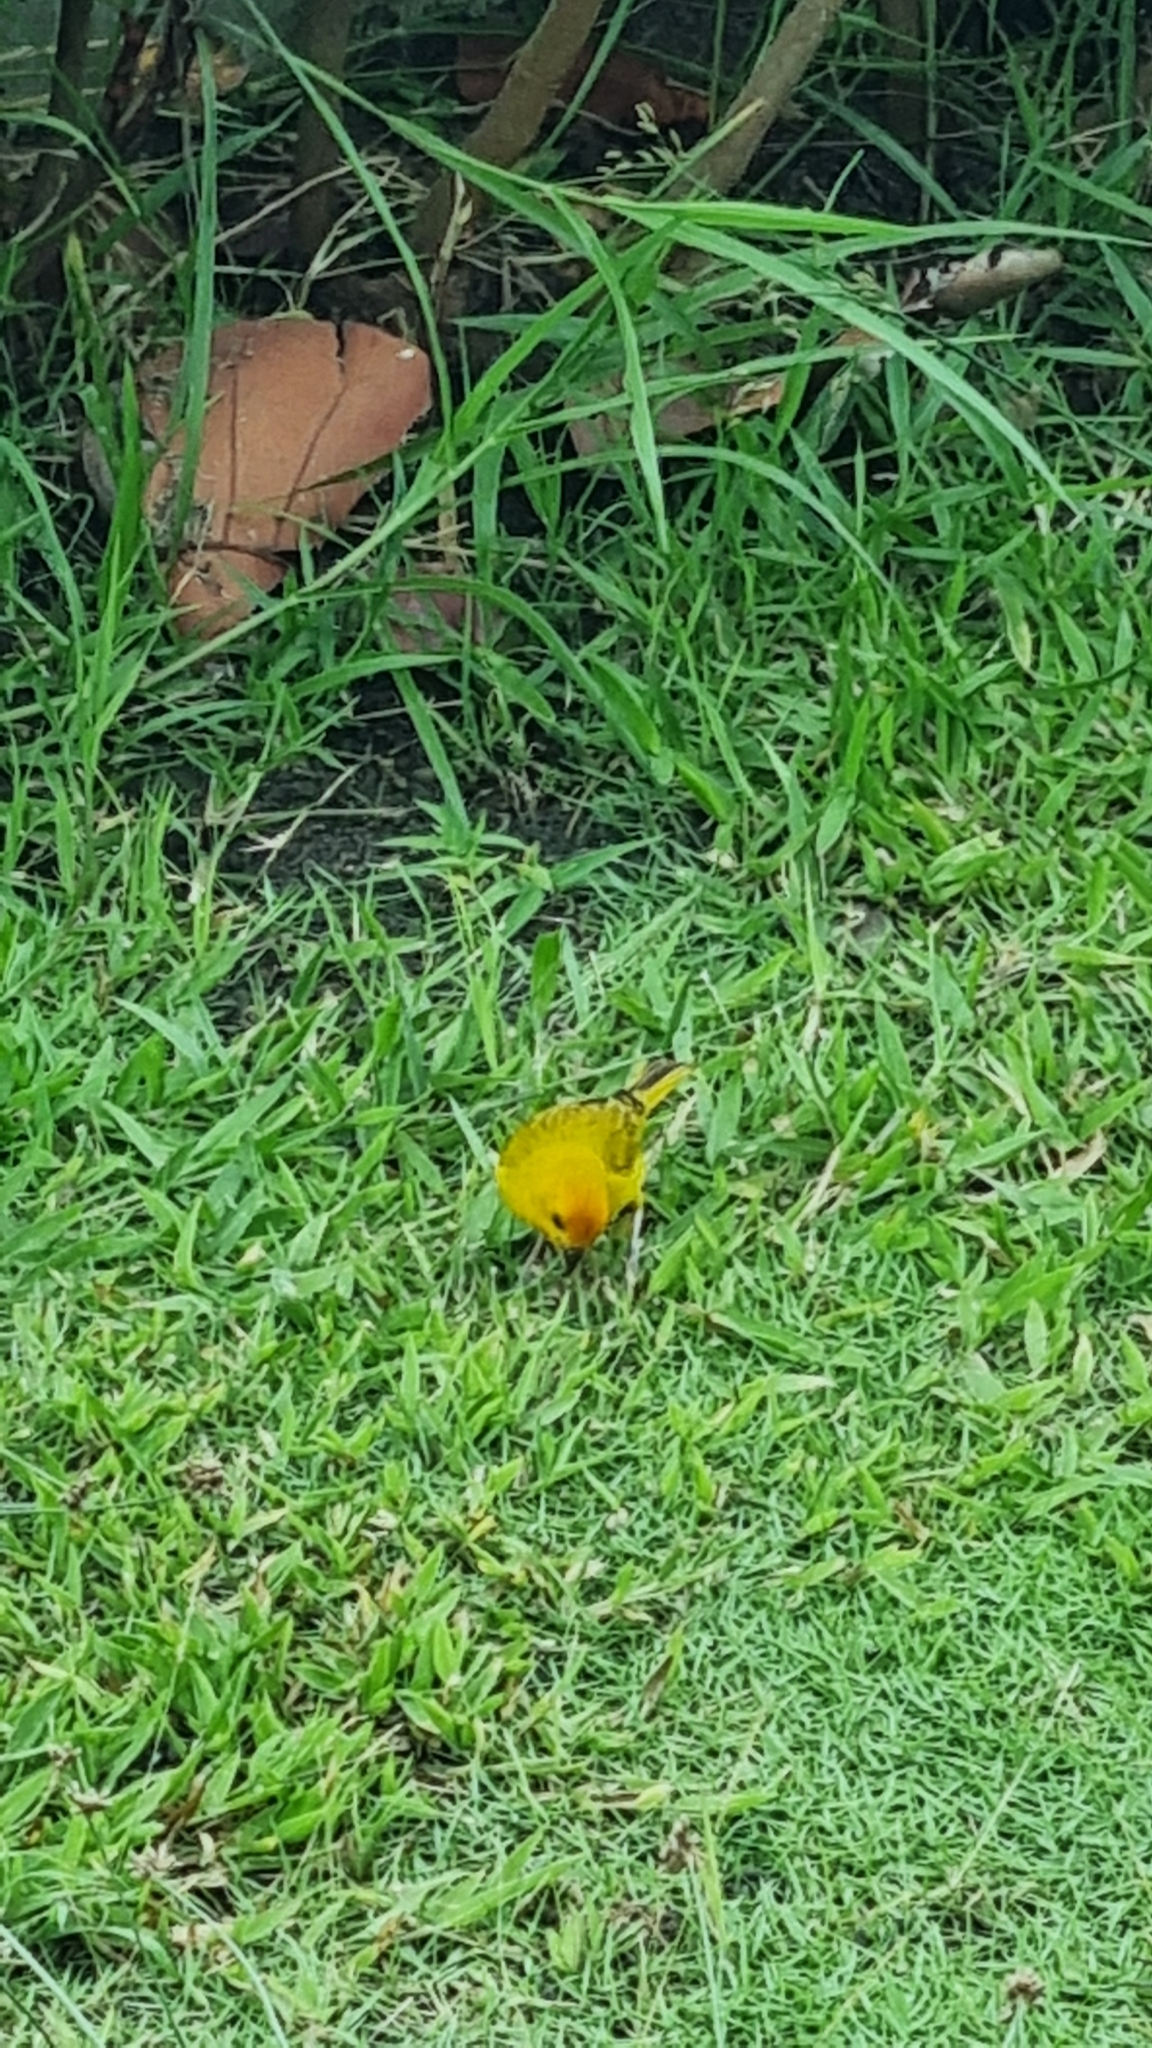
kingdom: Animalia
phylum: Chordata
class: Aves
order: Passeriformes
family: Thraupidae
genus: Sicalis
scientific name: Sicalis flaveola
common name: Saffron finch
